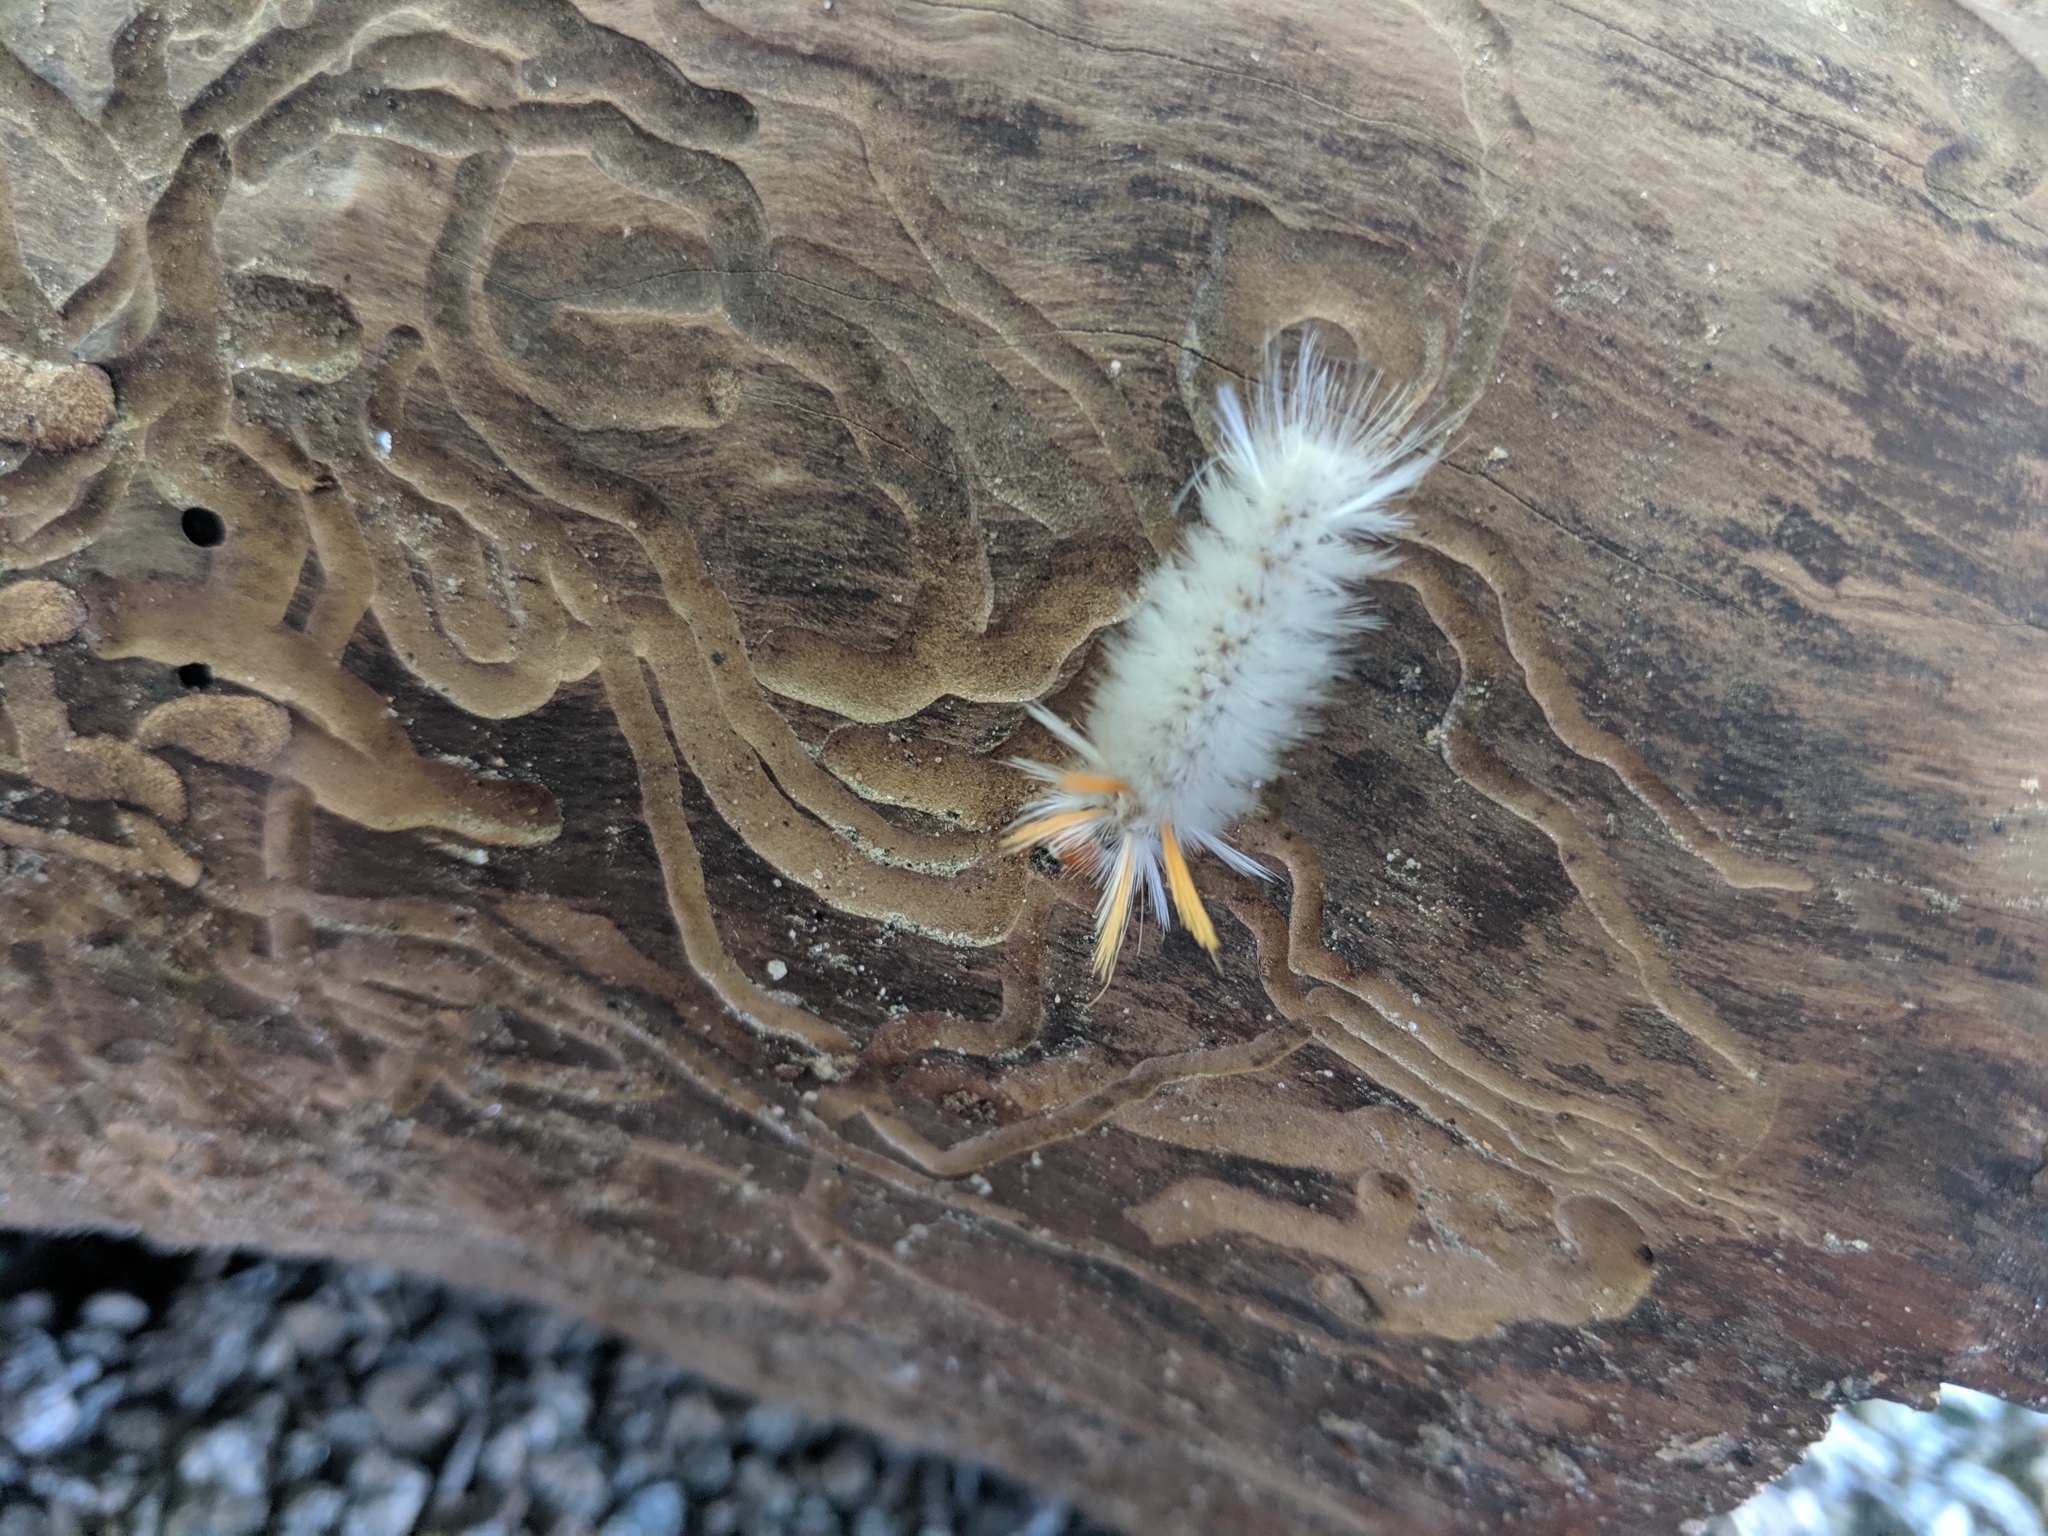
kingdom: Animalia
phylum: Arthropoda
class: Insecta
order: Lepidoptera
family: Erebidae
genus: Halysidota
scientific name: Halysidota harrisii
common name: Sycamore tussock moth
